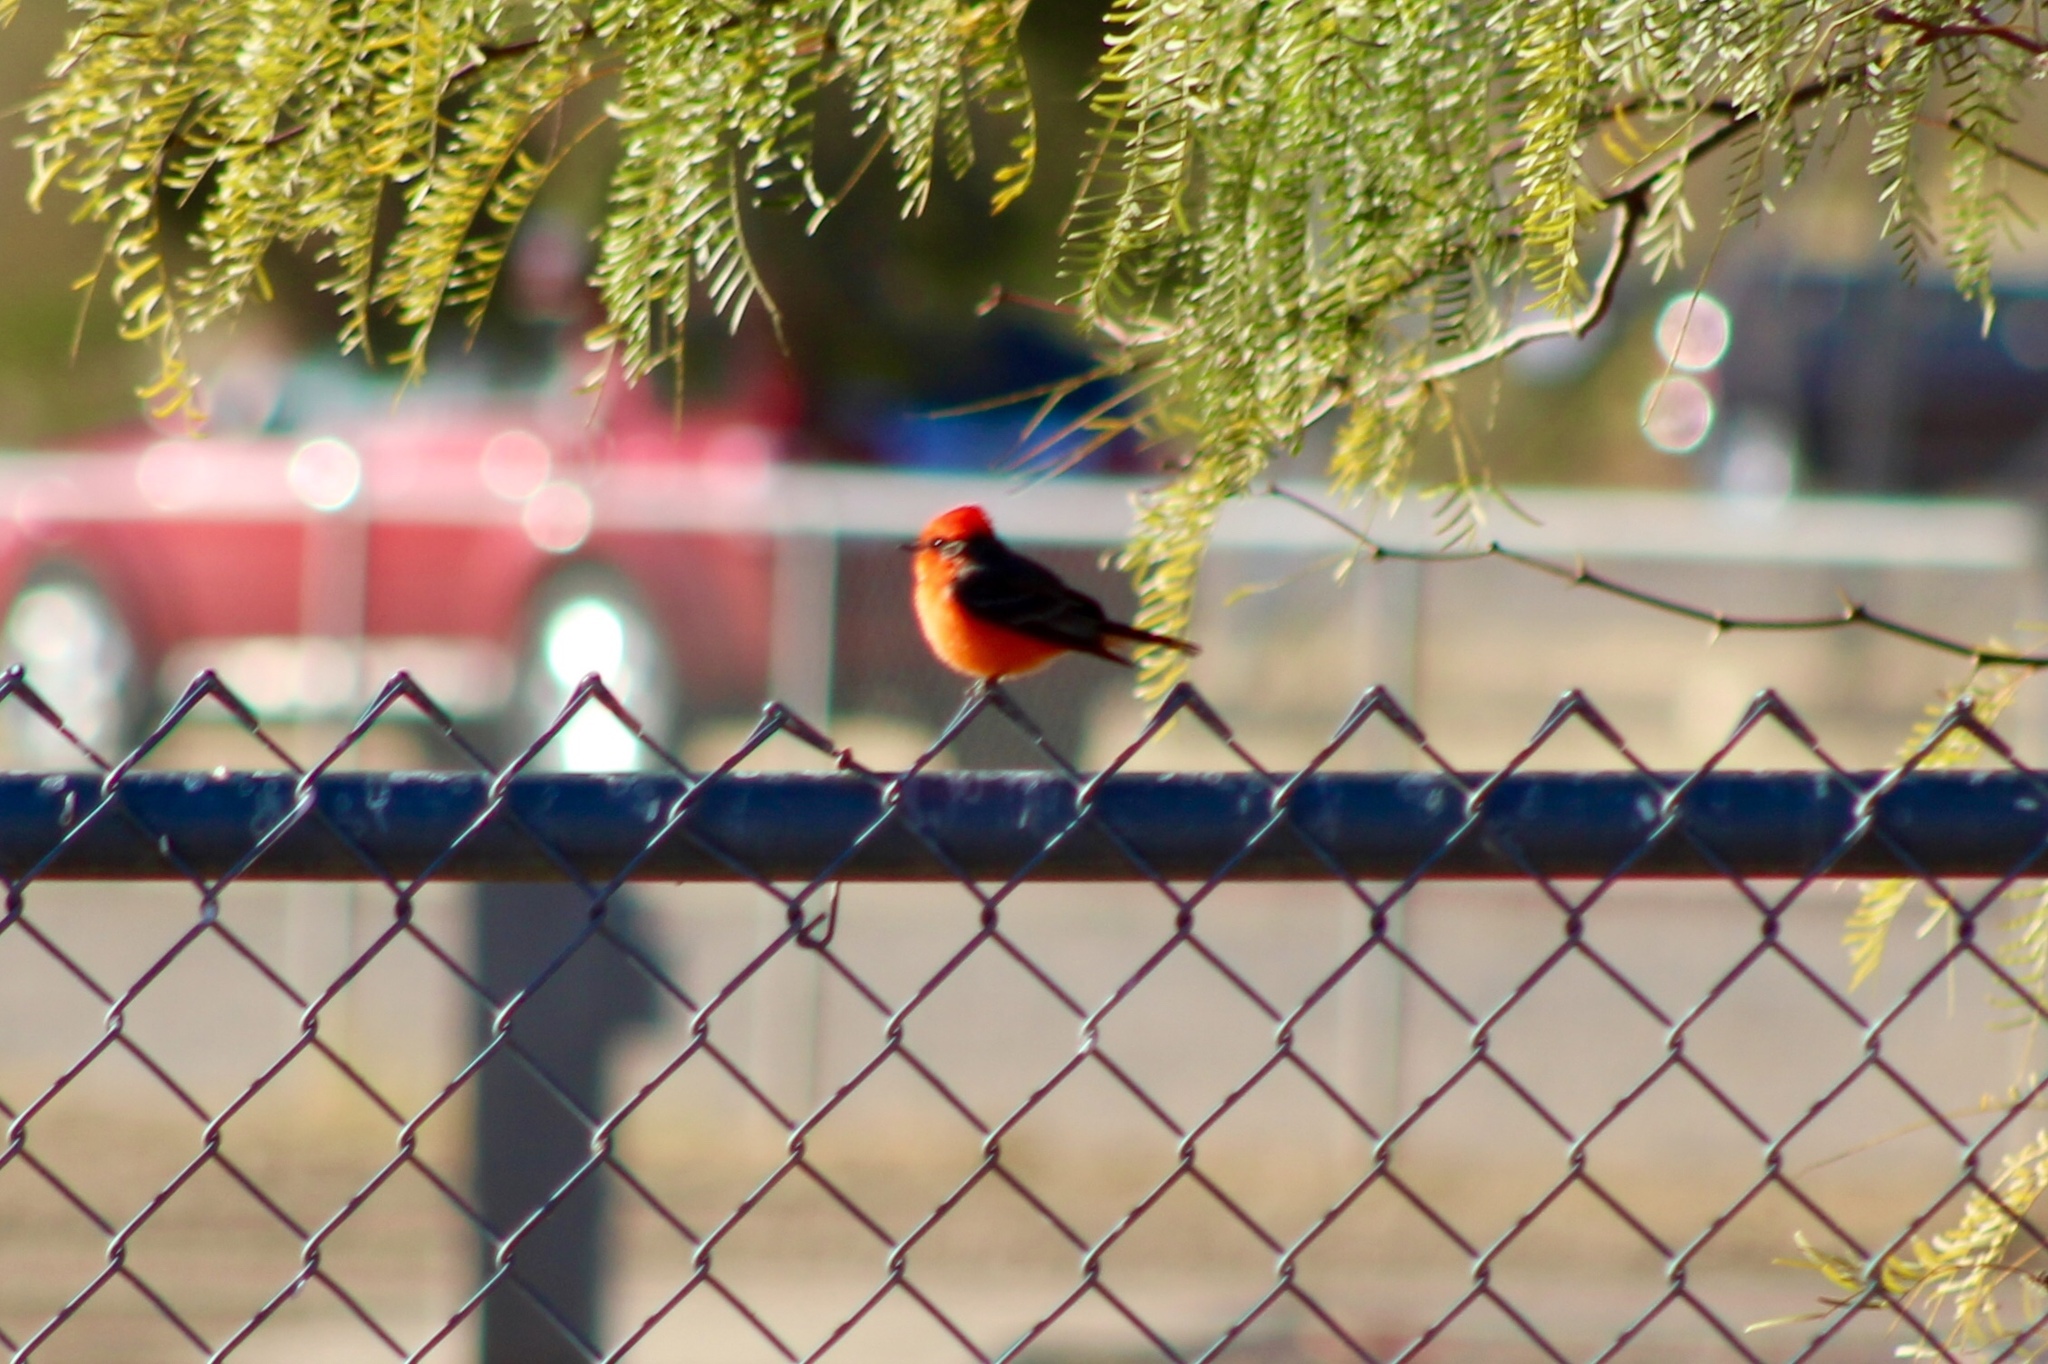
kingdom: Animalia
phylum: Chordata
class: Aves
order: Passeriformes
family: Tyrannidae
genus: Pyrocephalus
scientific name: Pyrocephalus rubinus
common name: Vermilion flycatcher
